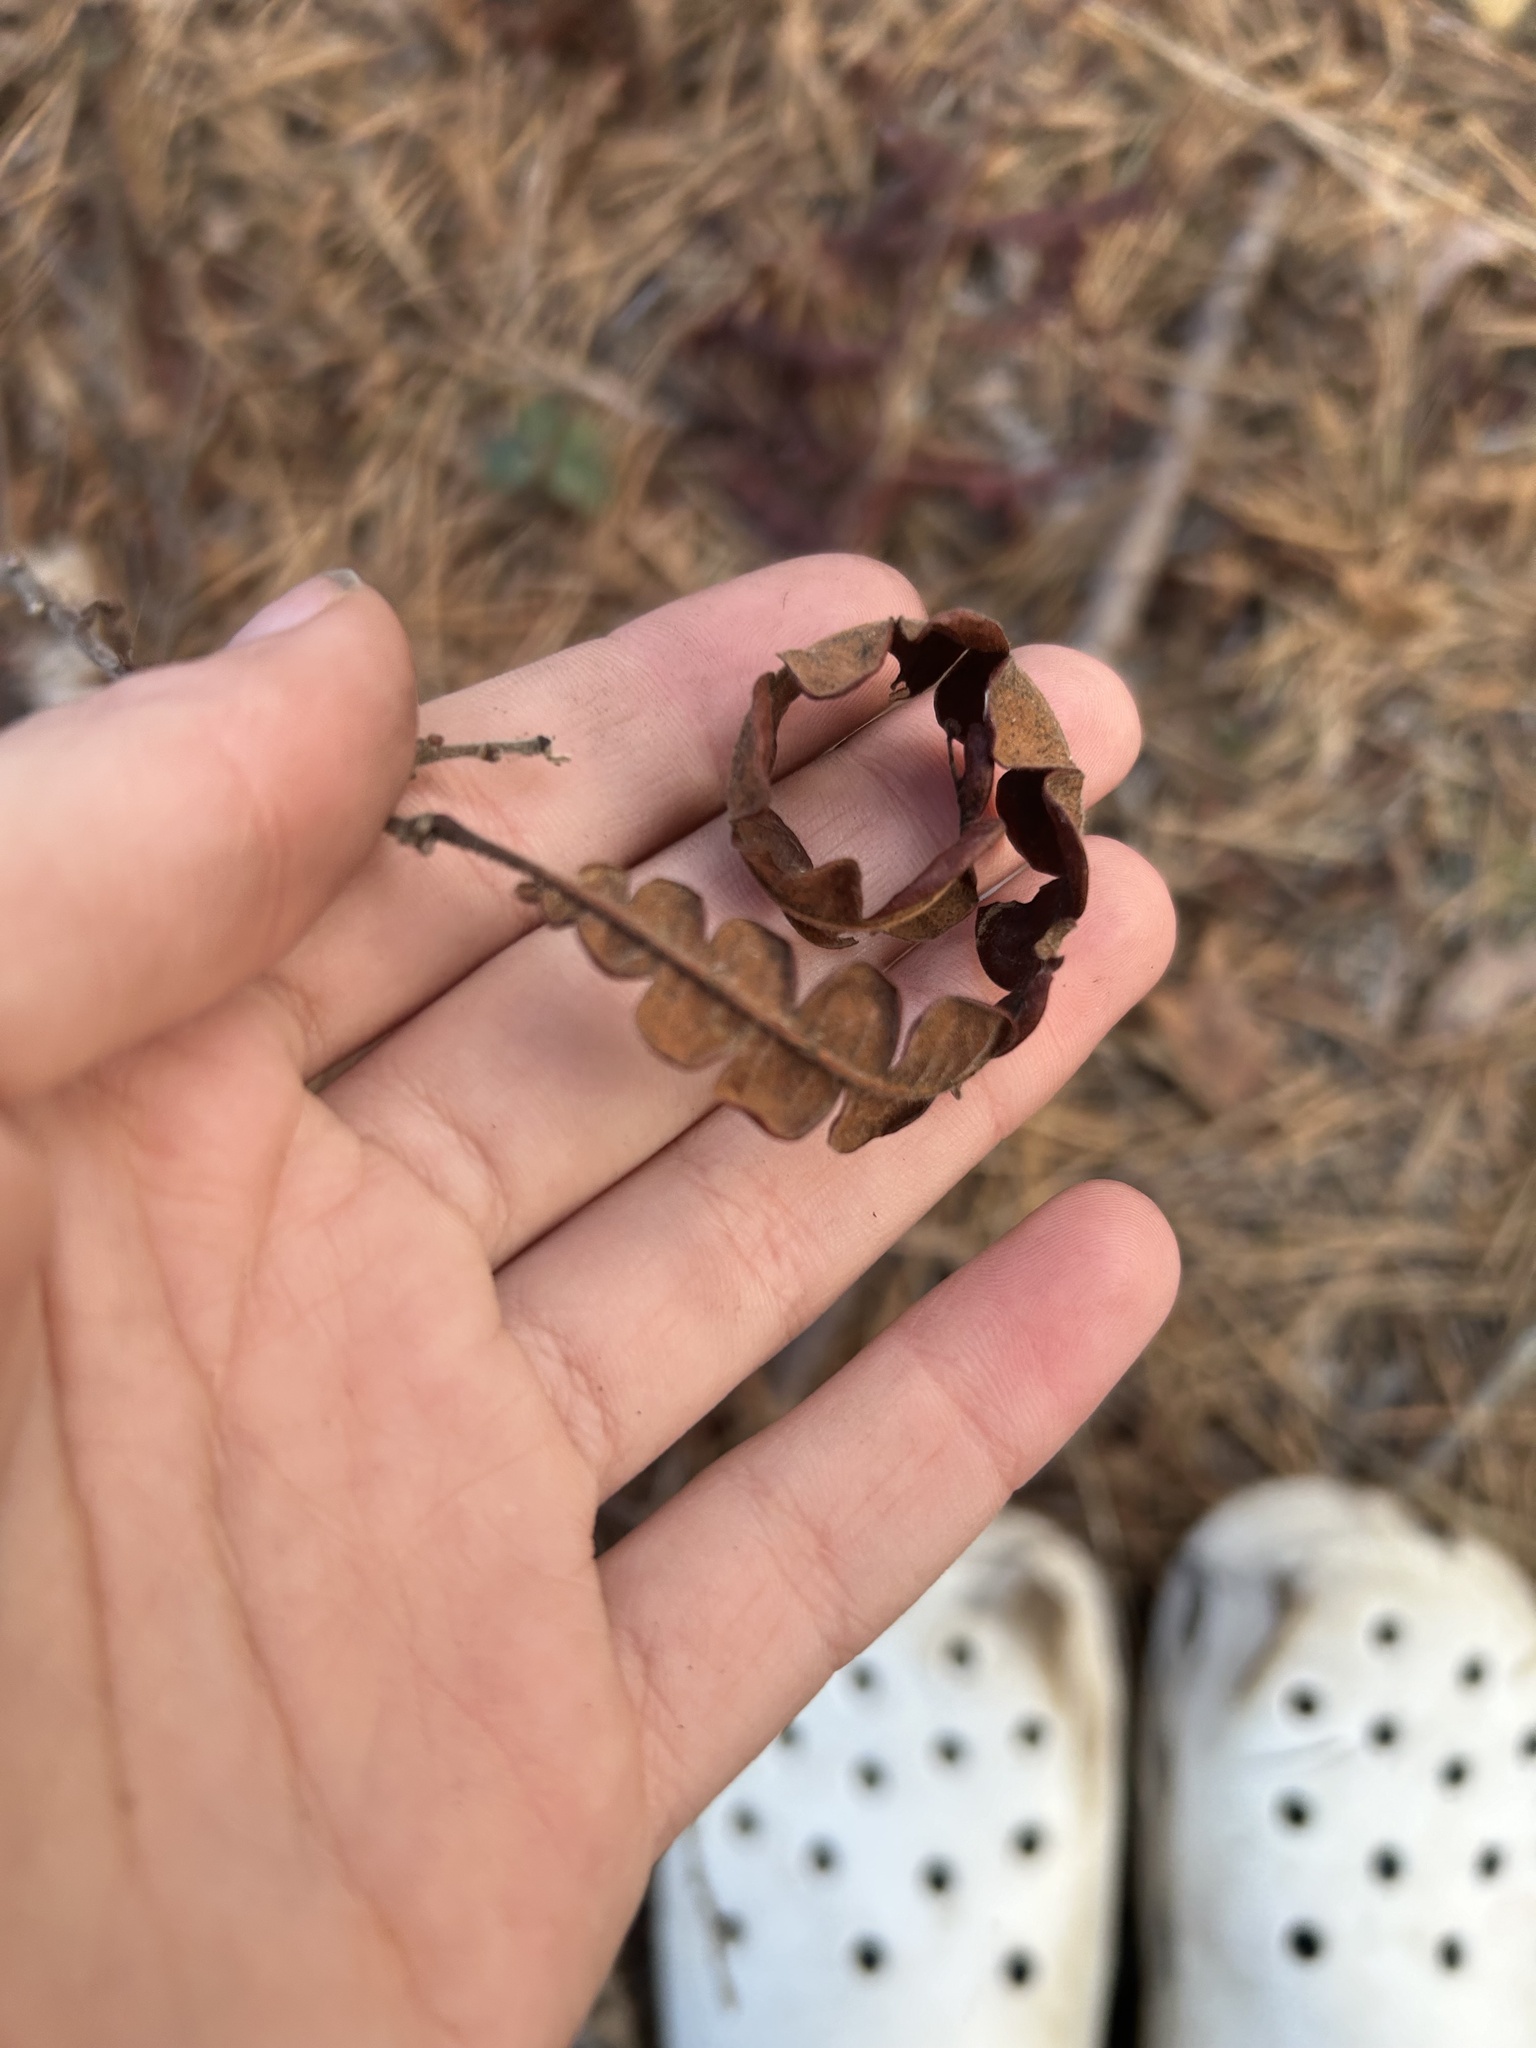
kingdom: Plantae
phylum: Tracheophyta
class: Magnoliopsida
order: Fagales
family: Myricaceae
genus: Comptonia
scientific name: Comptonia peregrina
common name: Sweet-fern
